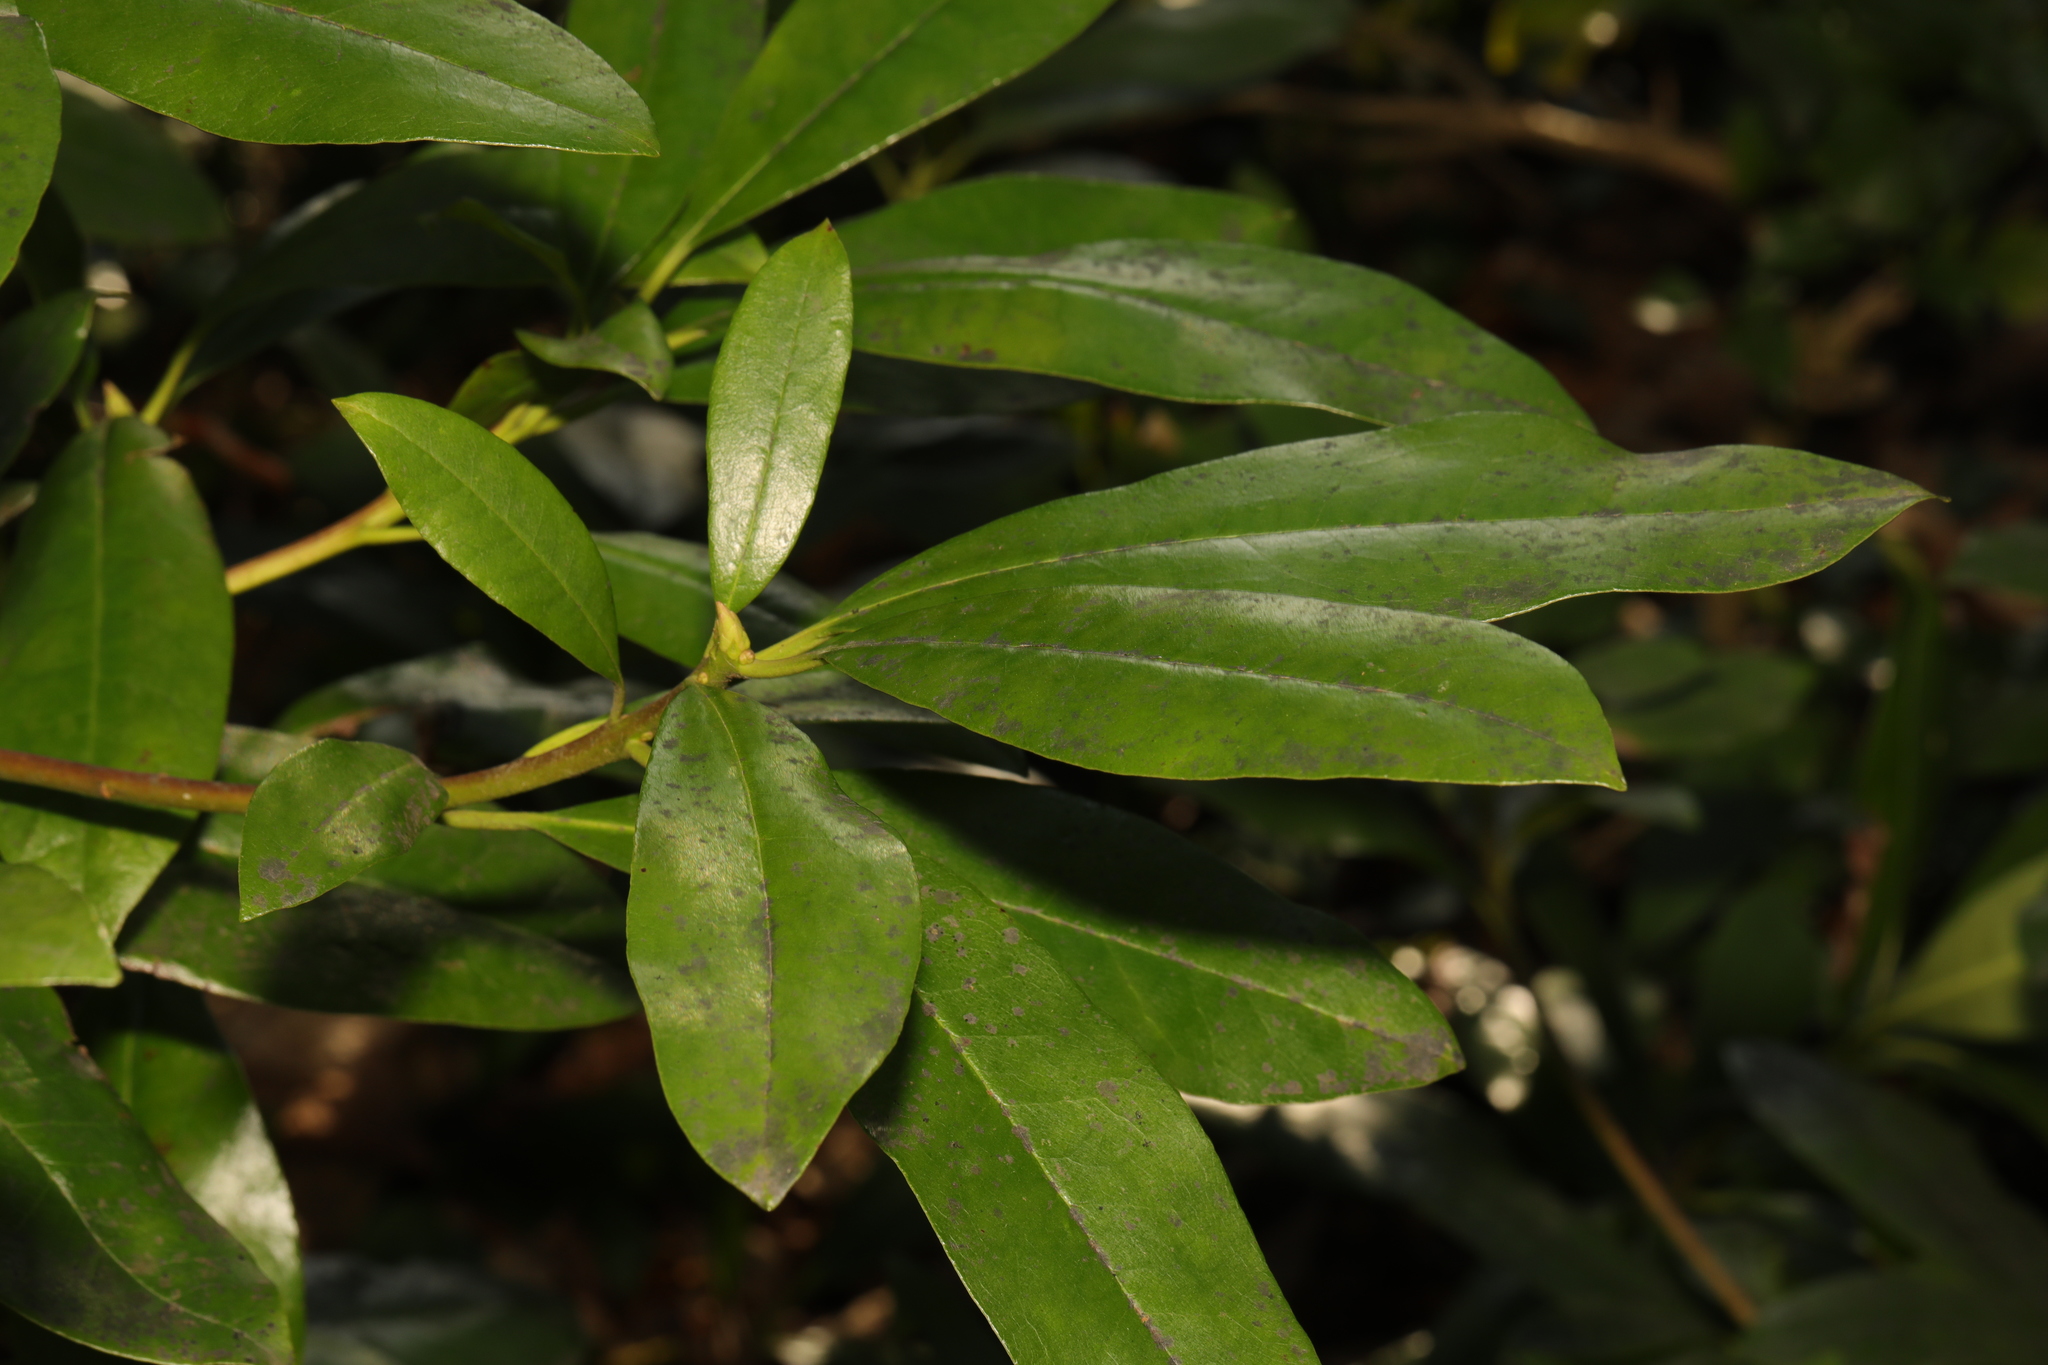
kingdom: Plantae
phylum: Tracheophyta
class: Magnoliopsida
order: Ericales
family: Ericaceae
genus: Rhododendron
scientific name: Rhododendron ponticum
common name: Rhododendron
